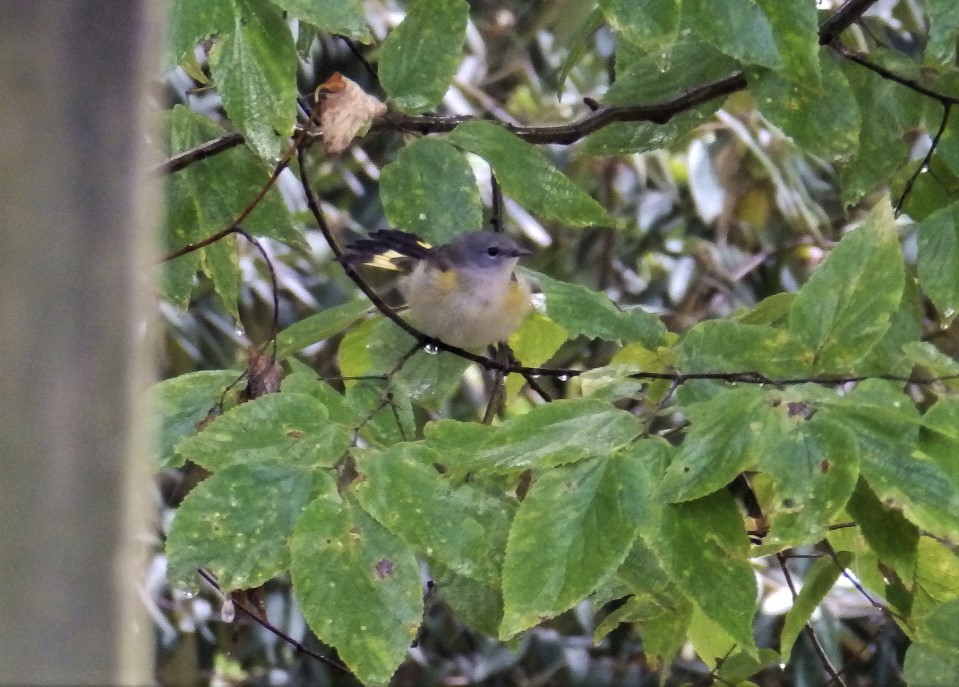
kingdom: Animalia
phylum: Chordata
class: Aves
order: Passeriformes
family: Parulidae
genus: Setophaga
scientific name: Setophaga ruticilla
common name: American redstart
